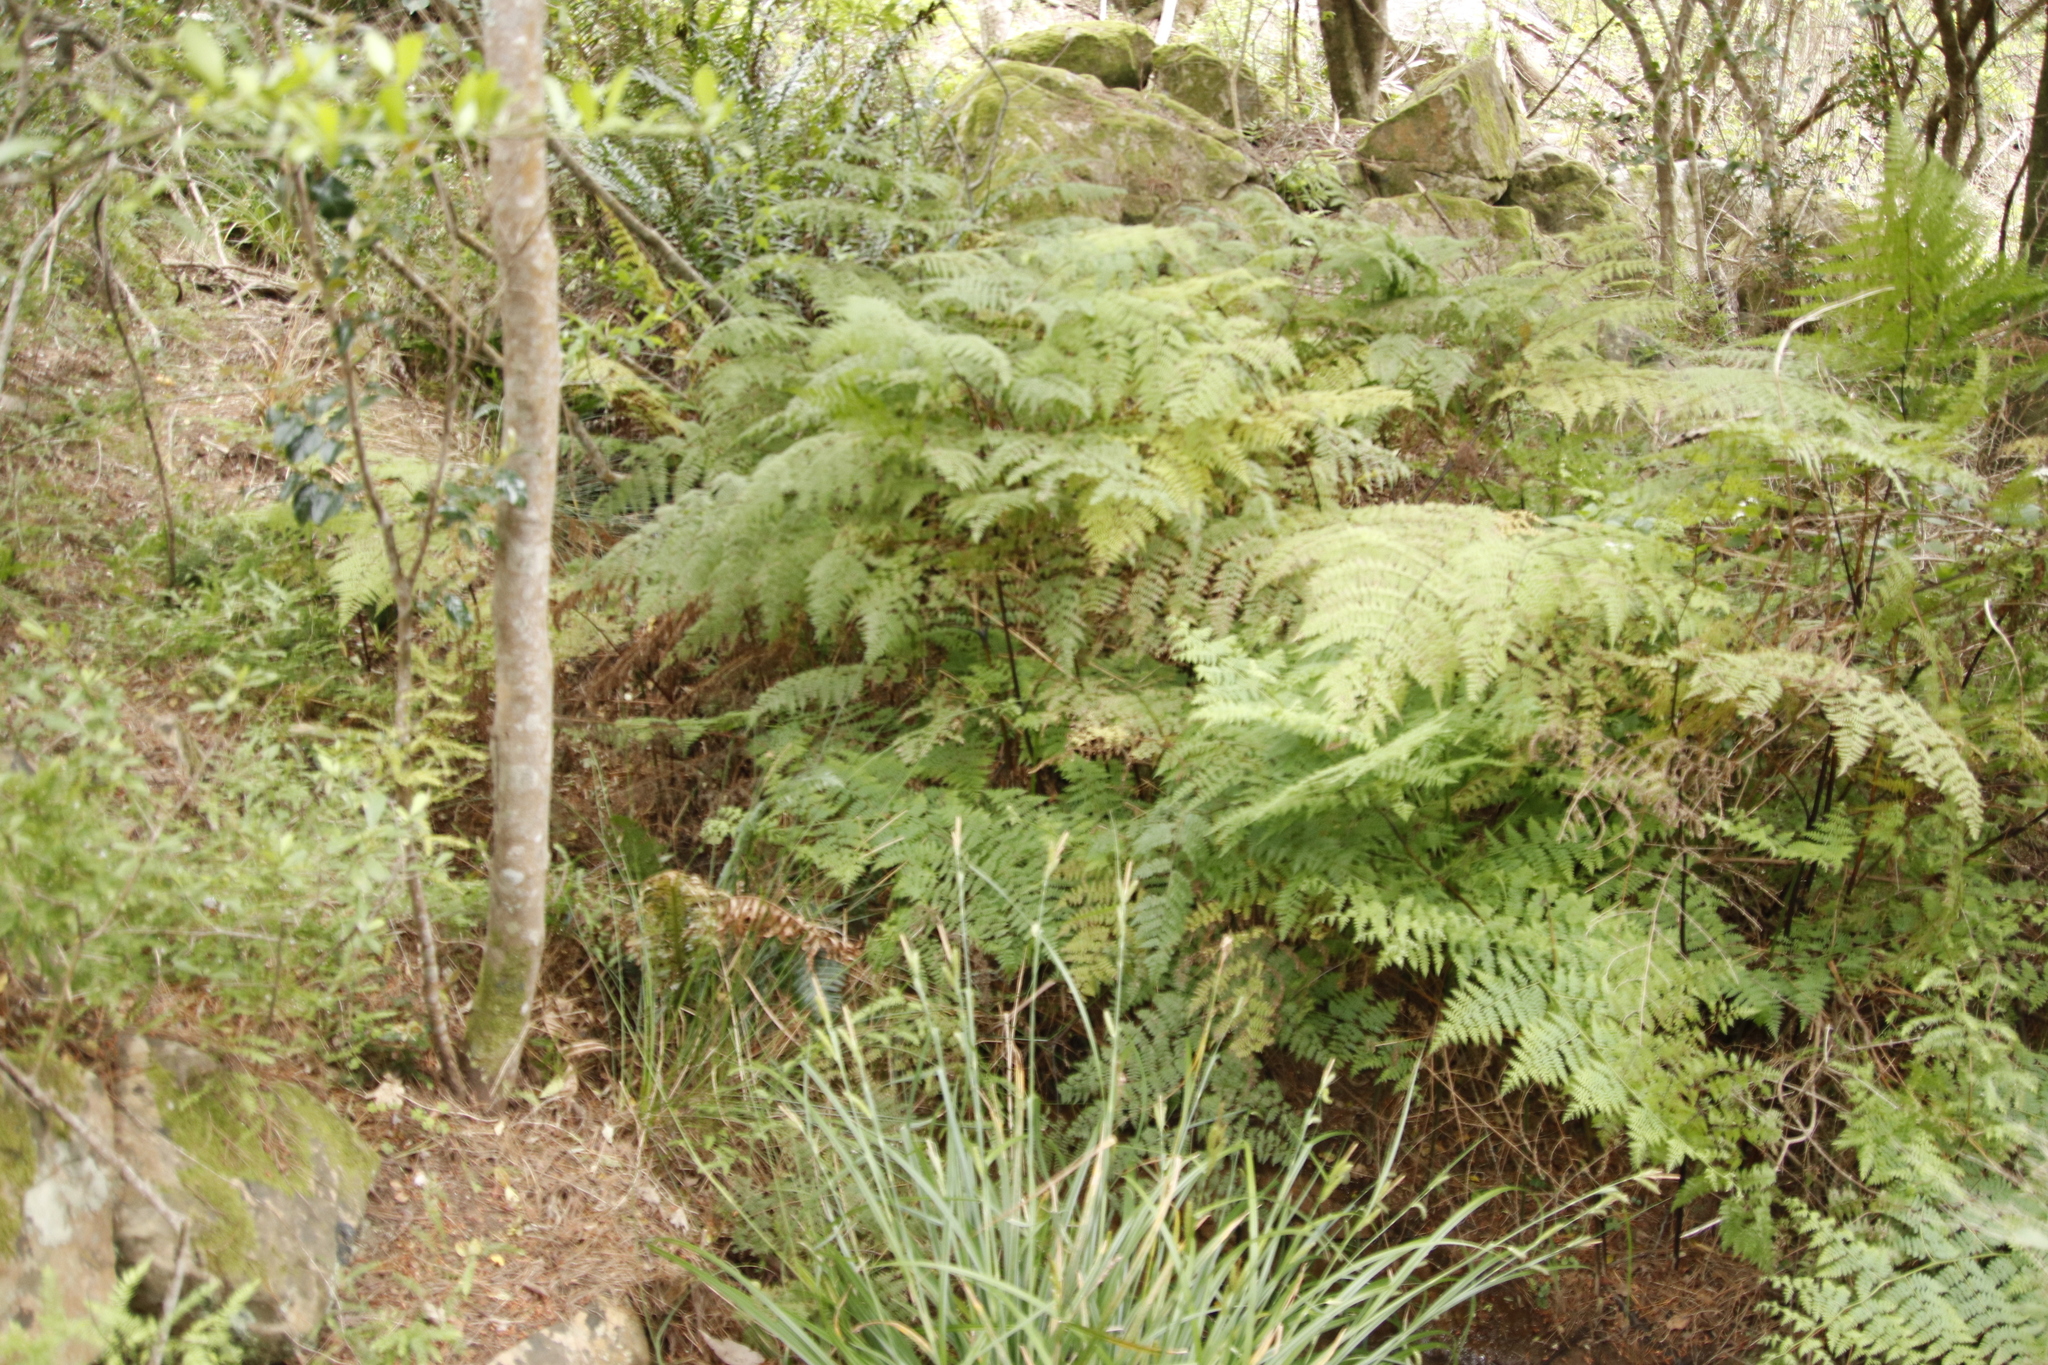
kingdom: Plantae
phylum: Tracheophyta
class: Polypodiopsida
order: Polypodiales
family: Dennstaedtiaceae
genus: Hypolepis
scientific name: Hypolepis sparsisora
